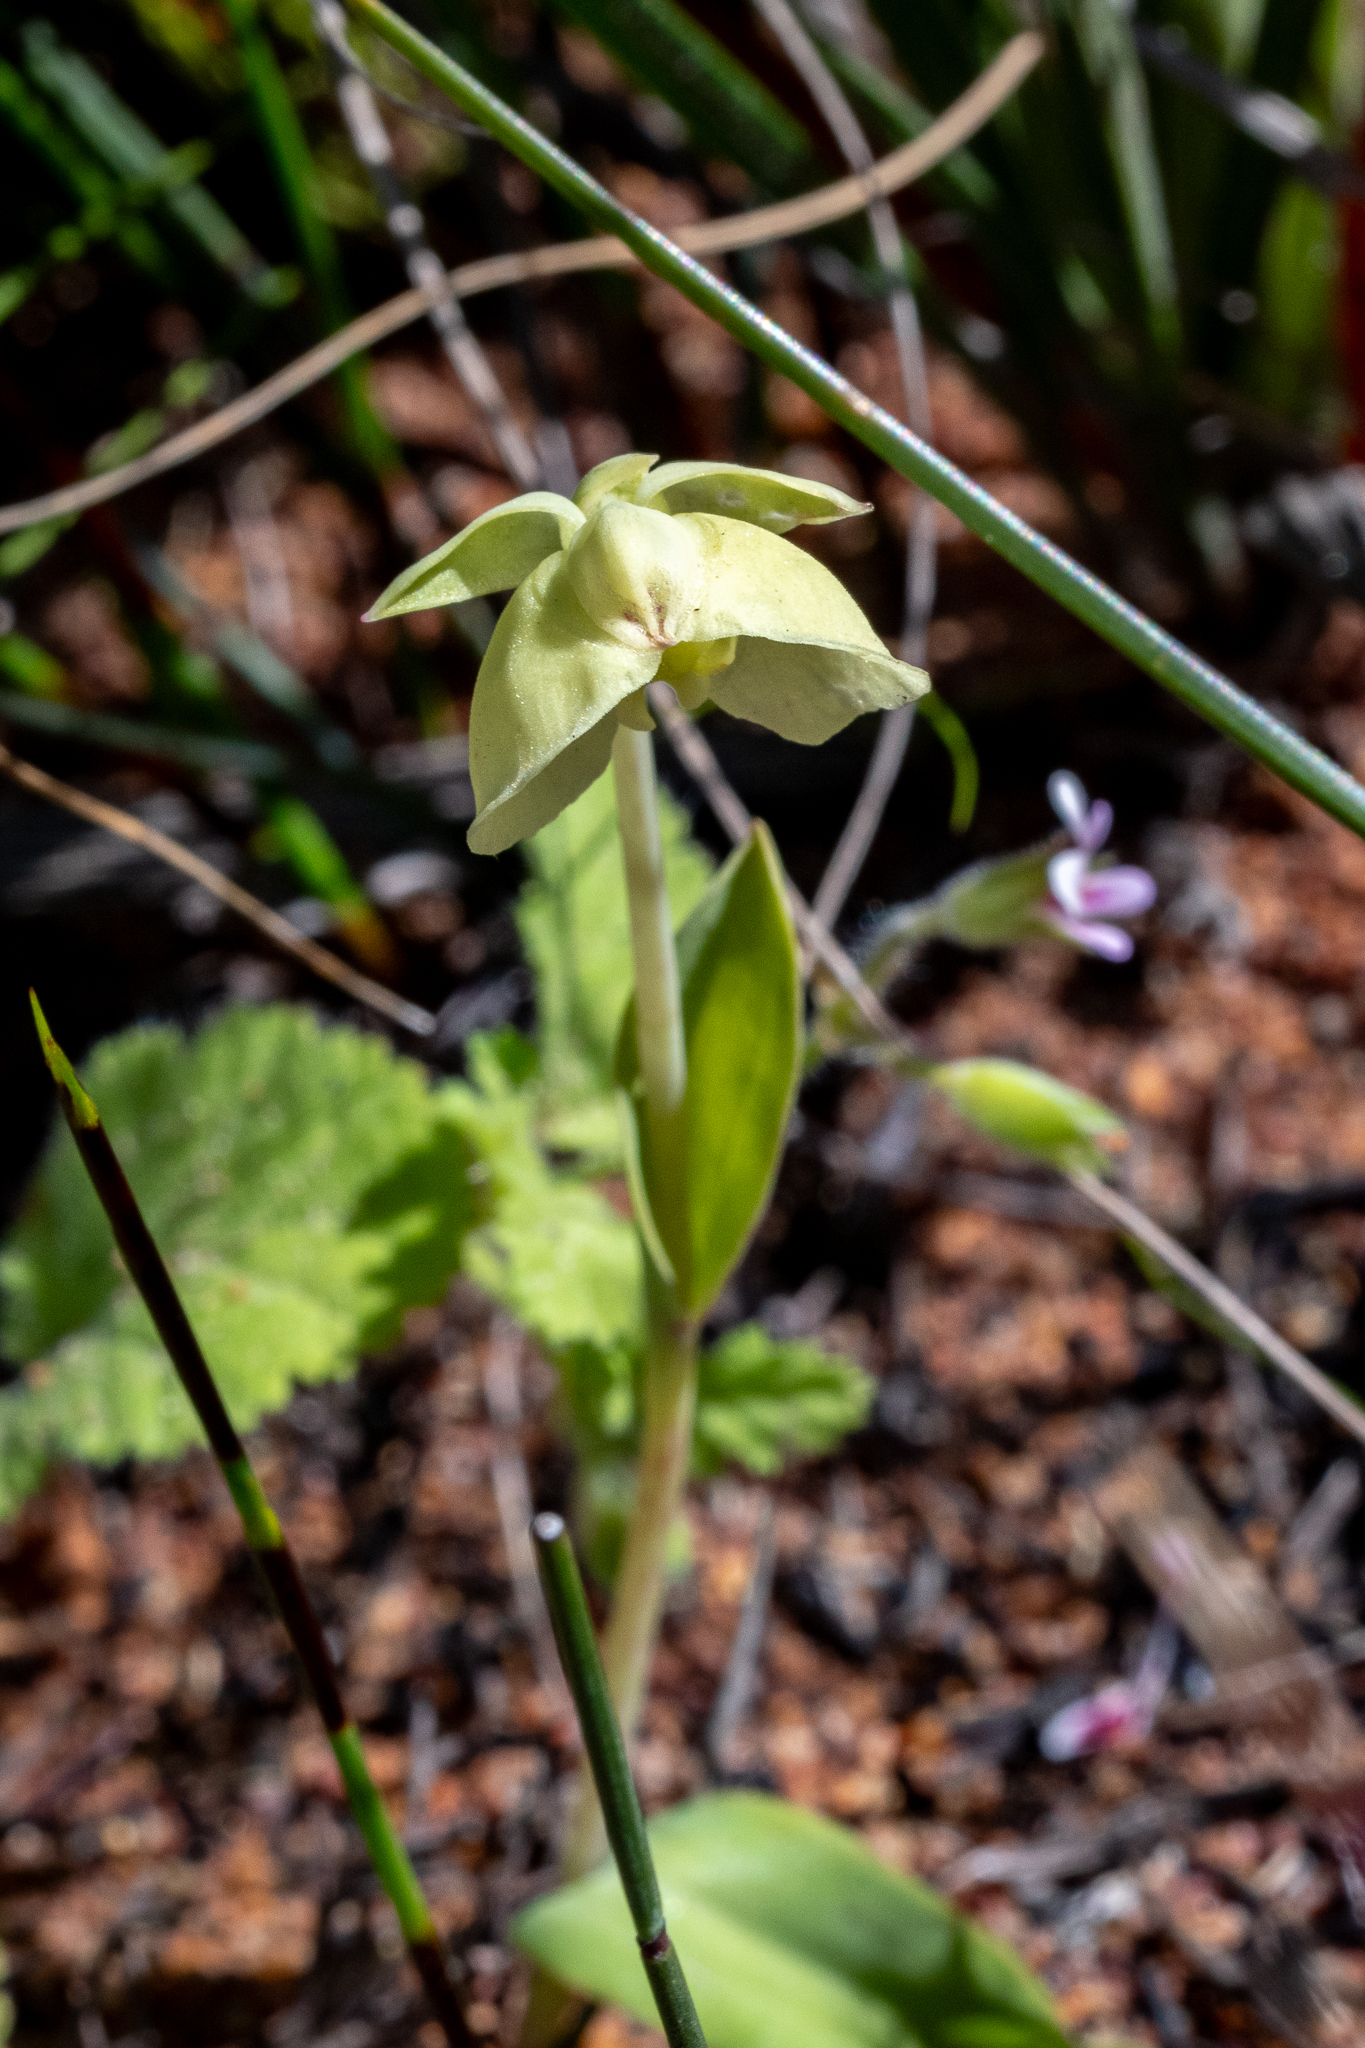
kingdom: Plantae
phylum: Tracheophyta
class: Liliopsida
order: Asparagales
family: Orchidaceae
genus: Pterygodium
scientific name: Pterygodium catholicum
